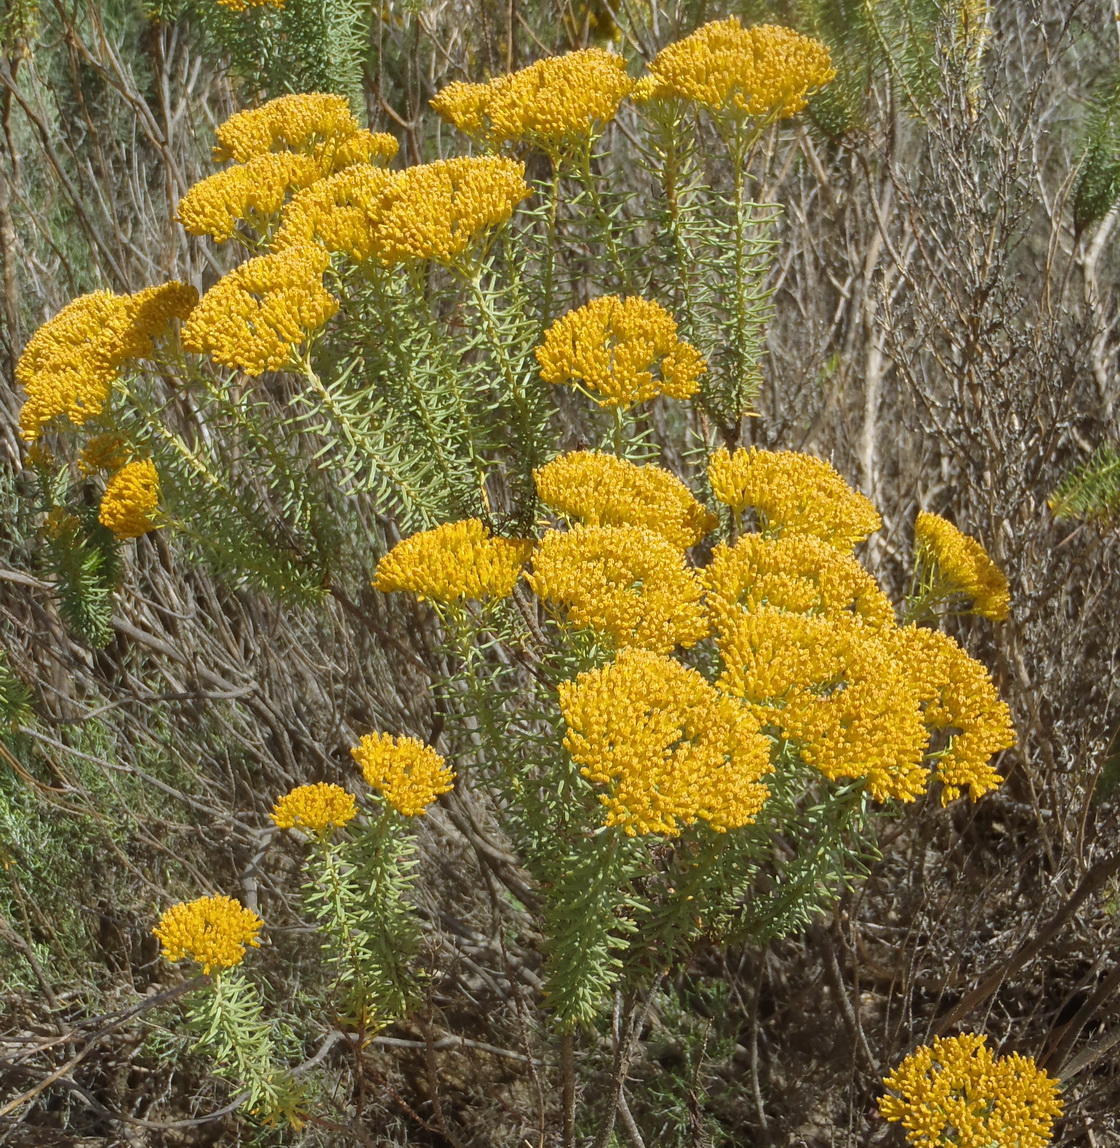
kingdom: Plantae
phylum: Tracheophyta
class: Magnoliopsida
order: Asterales
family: Asteraceae
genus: Athanasia
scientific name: Athanasia vestita
